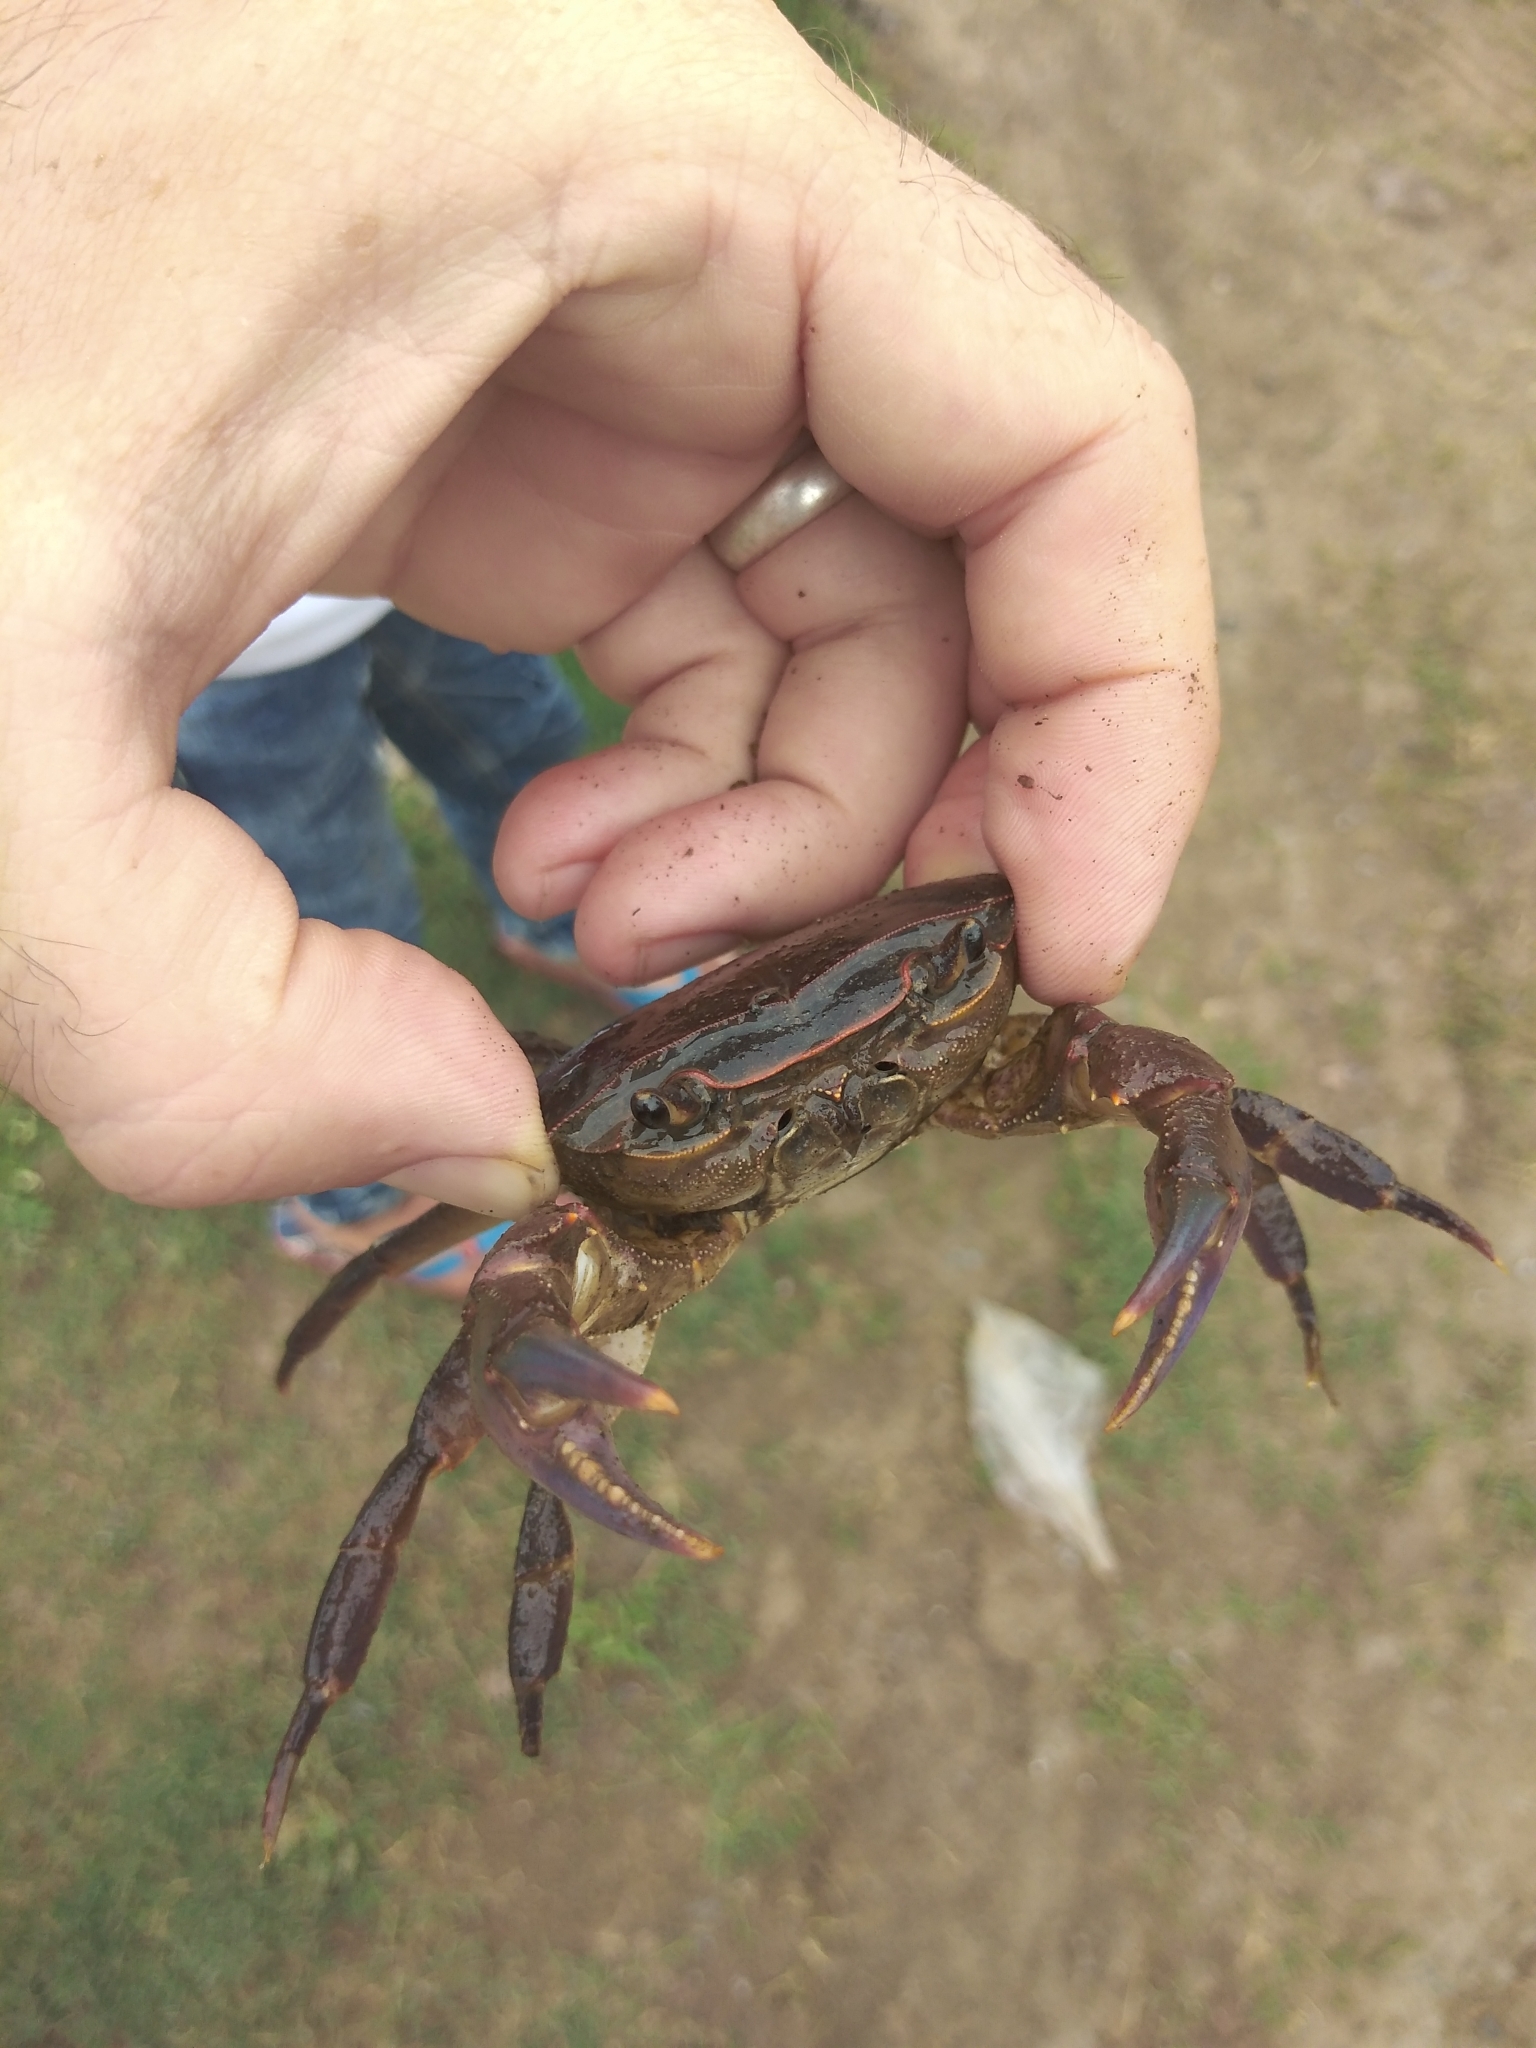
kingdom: Animalia
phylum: Arthropoda
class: Malacostraca
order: Decapoda
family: Potamonautidae
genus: Potamonautes
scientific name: Potamonautes sidneyi
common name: Natal river crab
